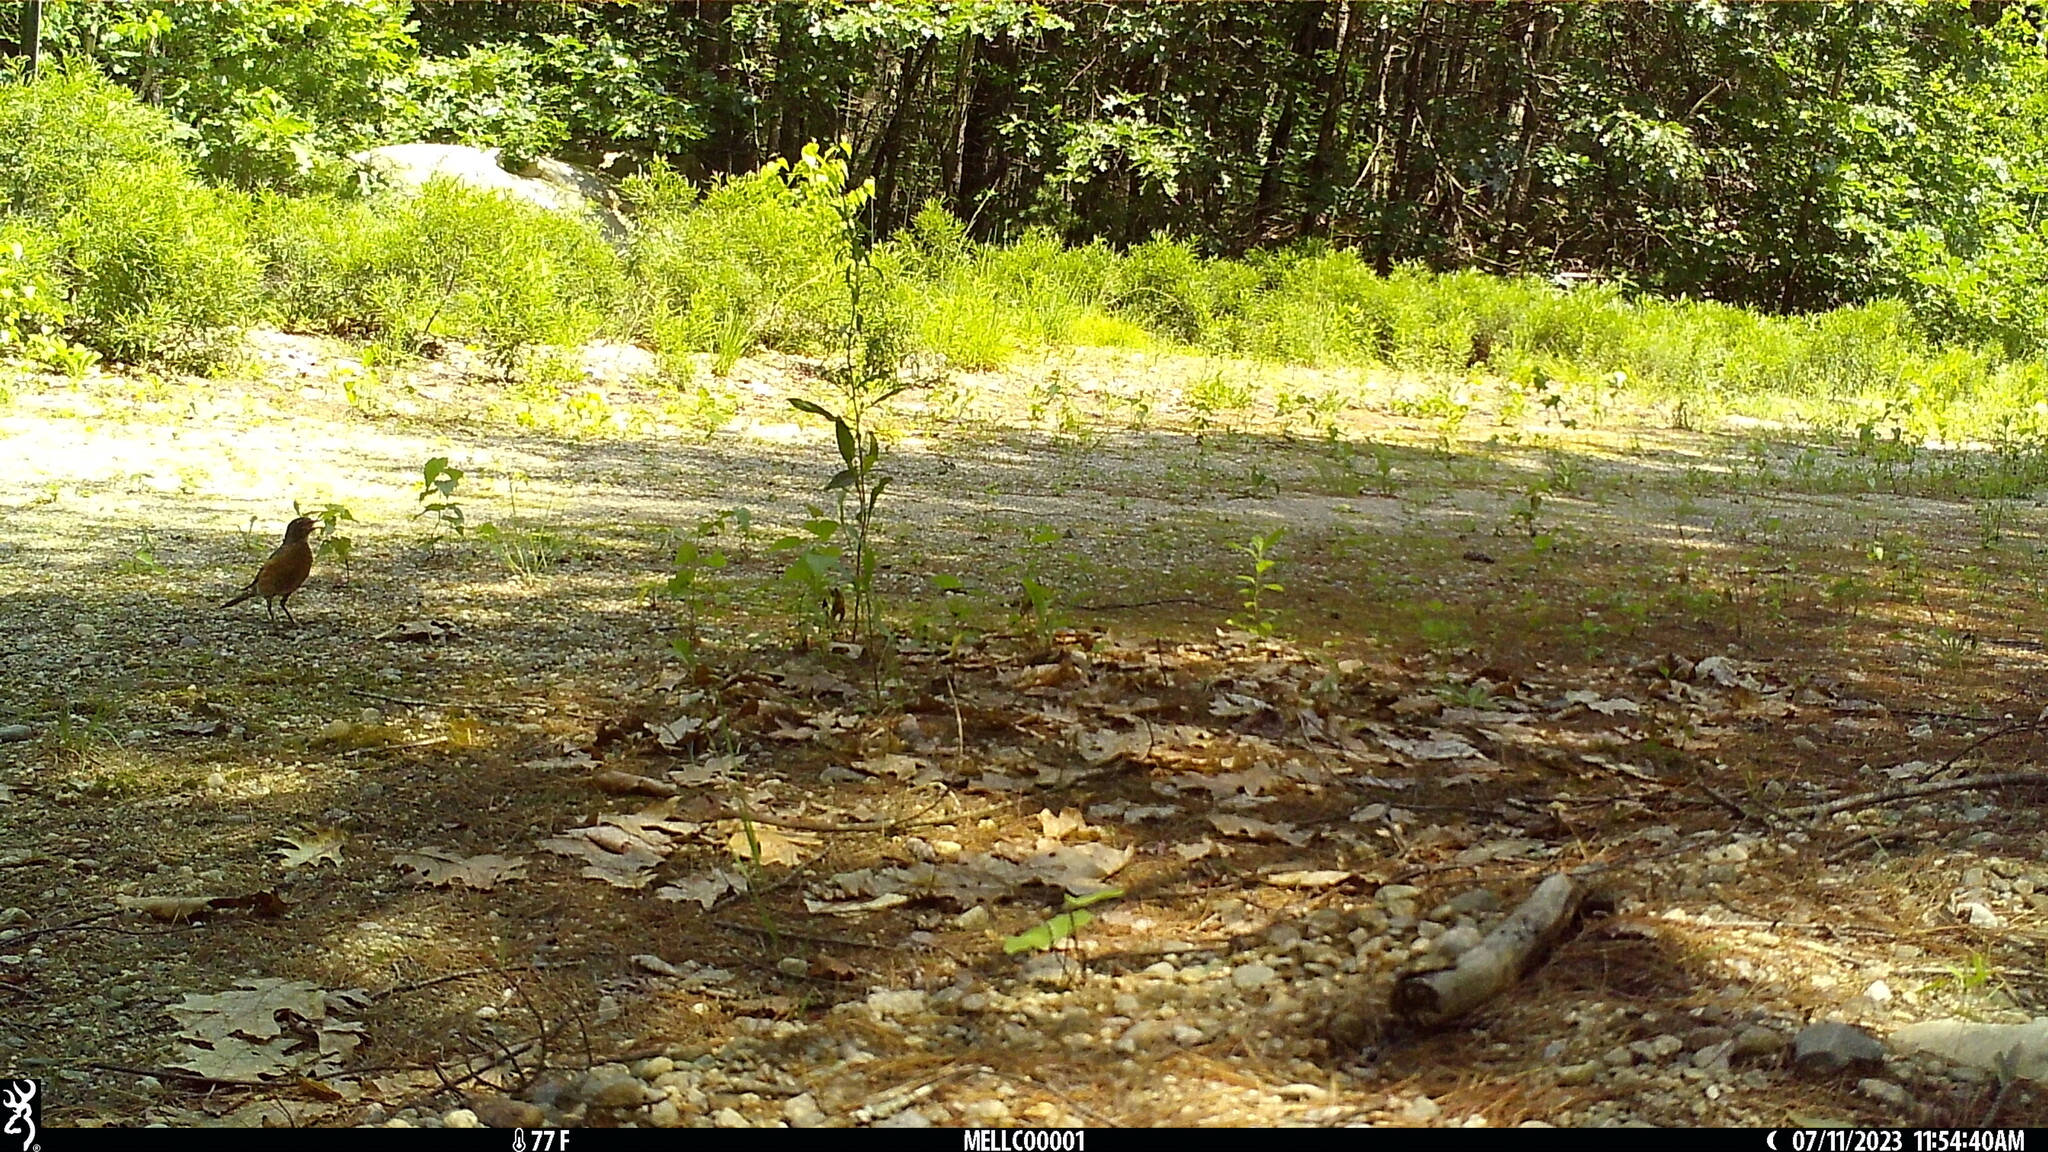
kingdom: Animalia
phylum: Chordata
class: Aves
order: Passeriformes
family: Turdidae
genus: Turdus
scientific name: Turdus migratorius
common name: American robin
